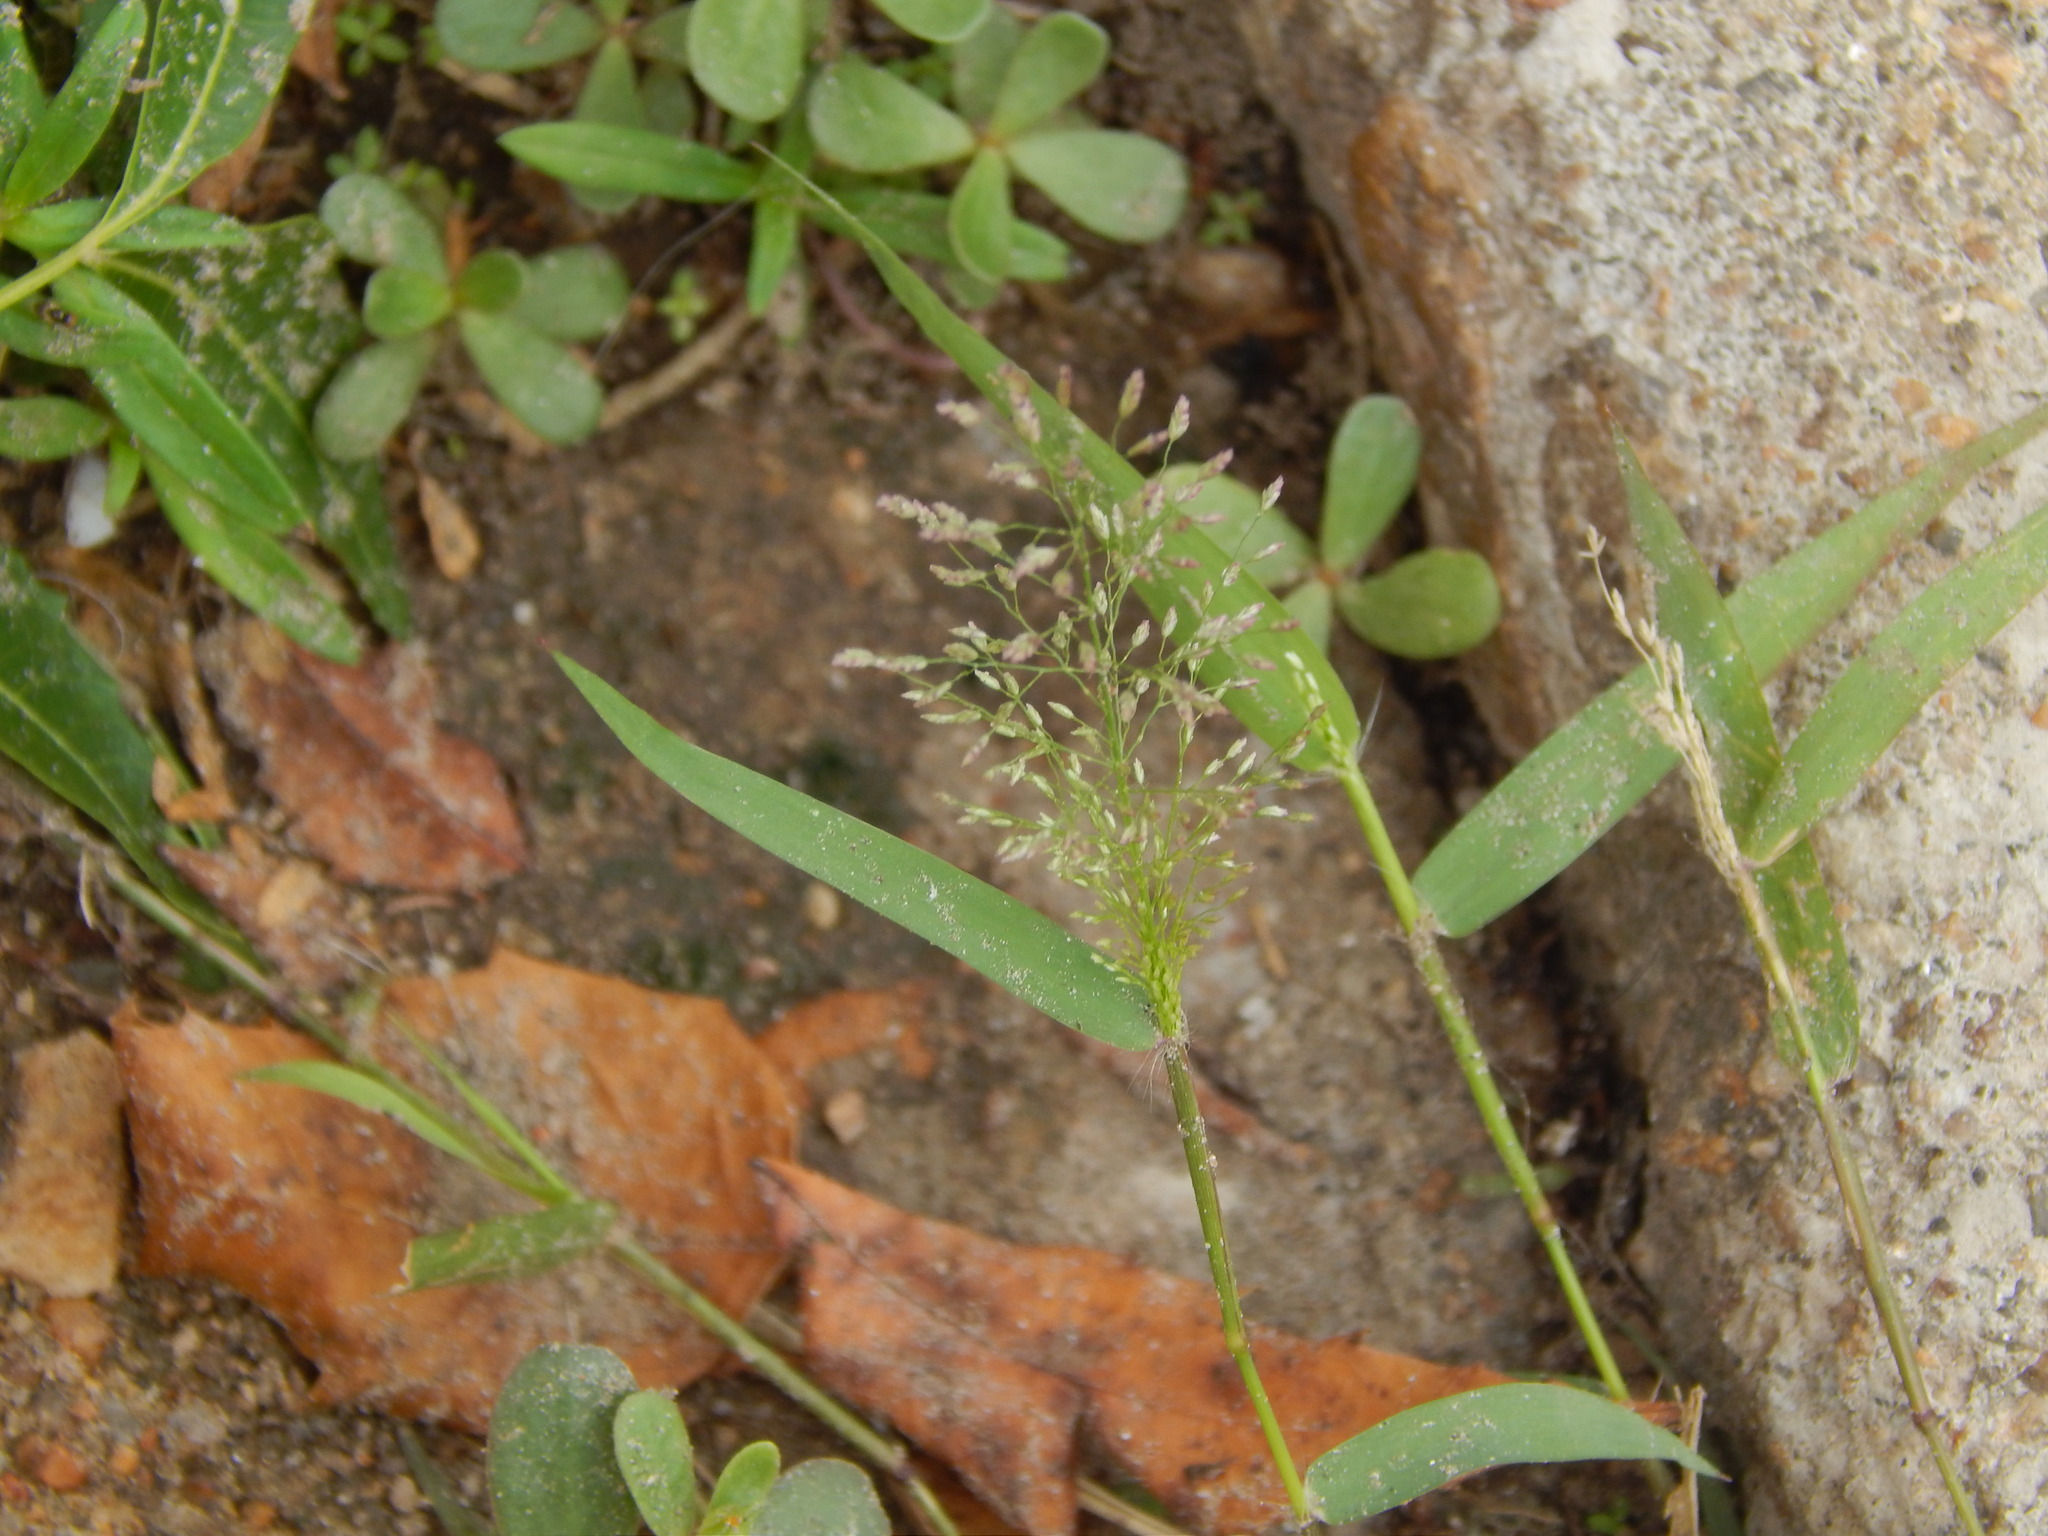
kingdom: Plantae
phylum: Tracheophyta
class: Liliopsida
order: Poales
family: Poaceae
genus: Eragrostis
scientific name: Eragrostis tenella
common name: Japanese lovegrass
